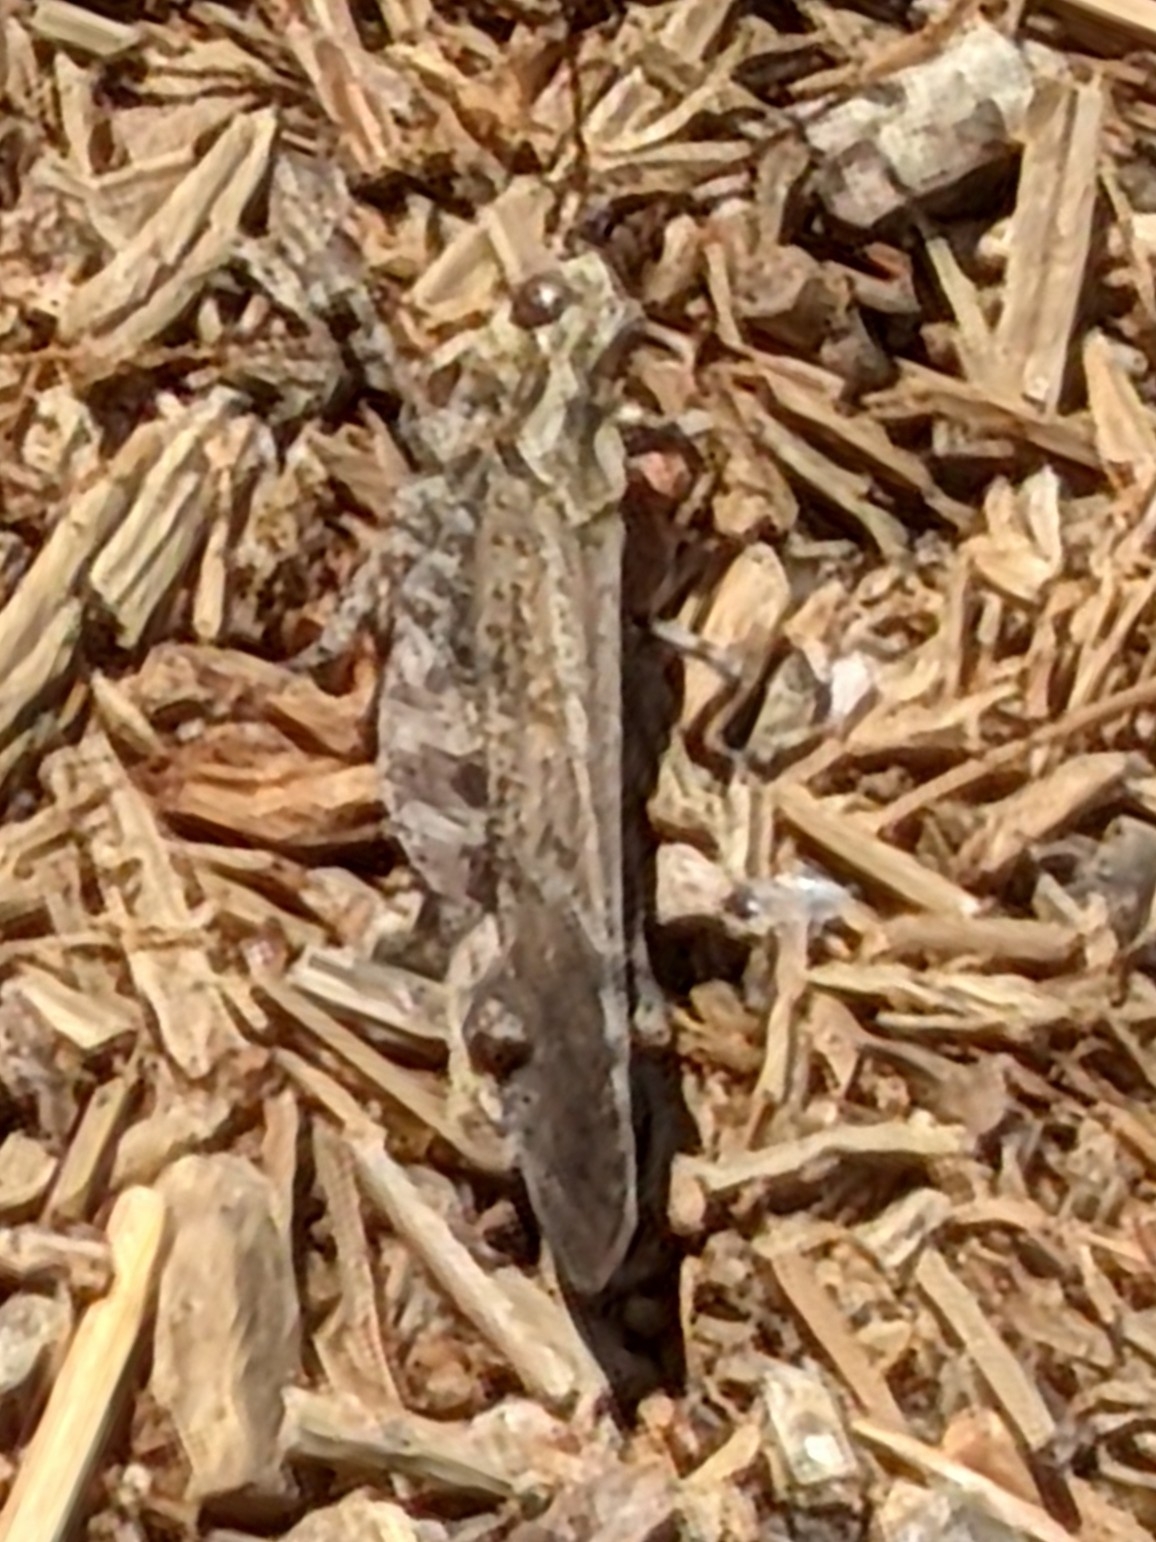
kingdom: Animalia
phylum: Arthropoda
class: Insecta
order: Orthoptera
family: Acrididae
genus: Trimerotropis
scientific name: Trimerotropis verruculata
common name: Crackling forest grasshopper
